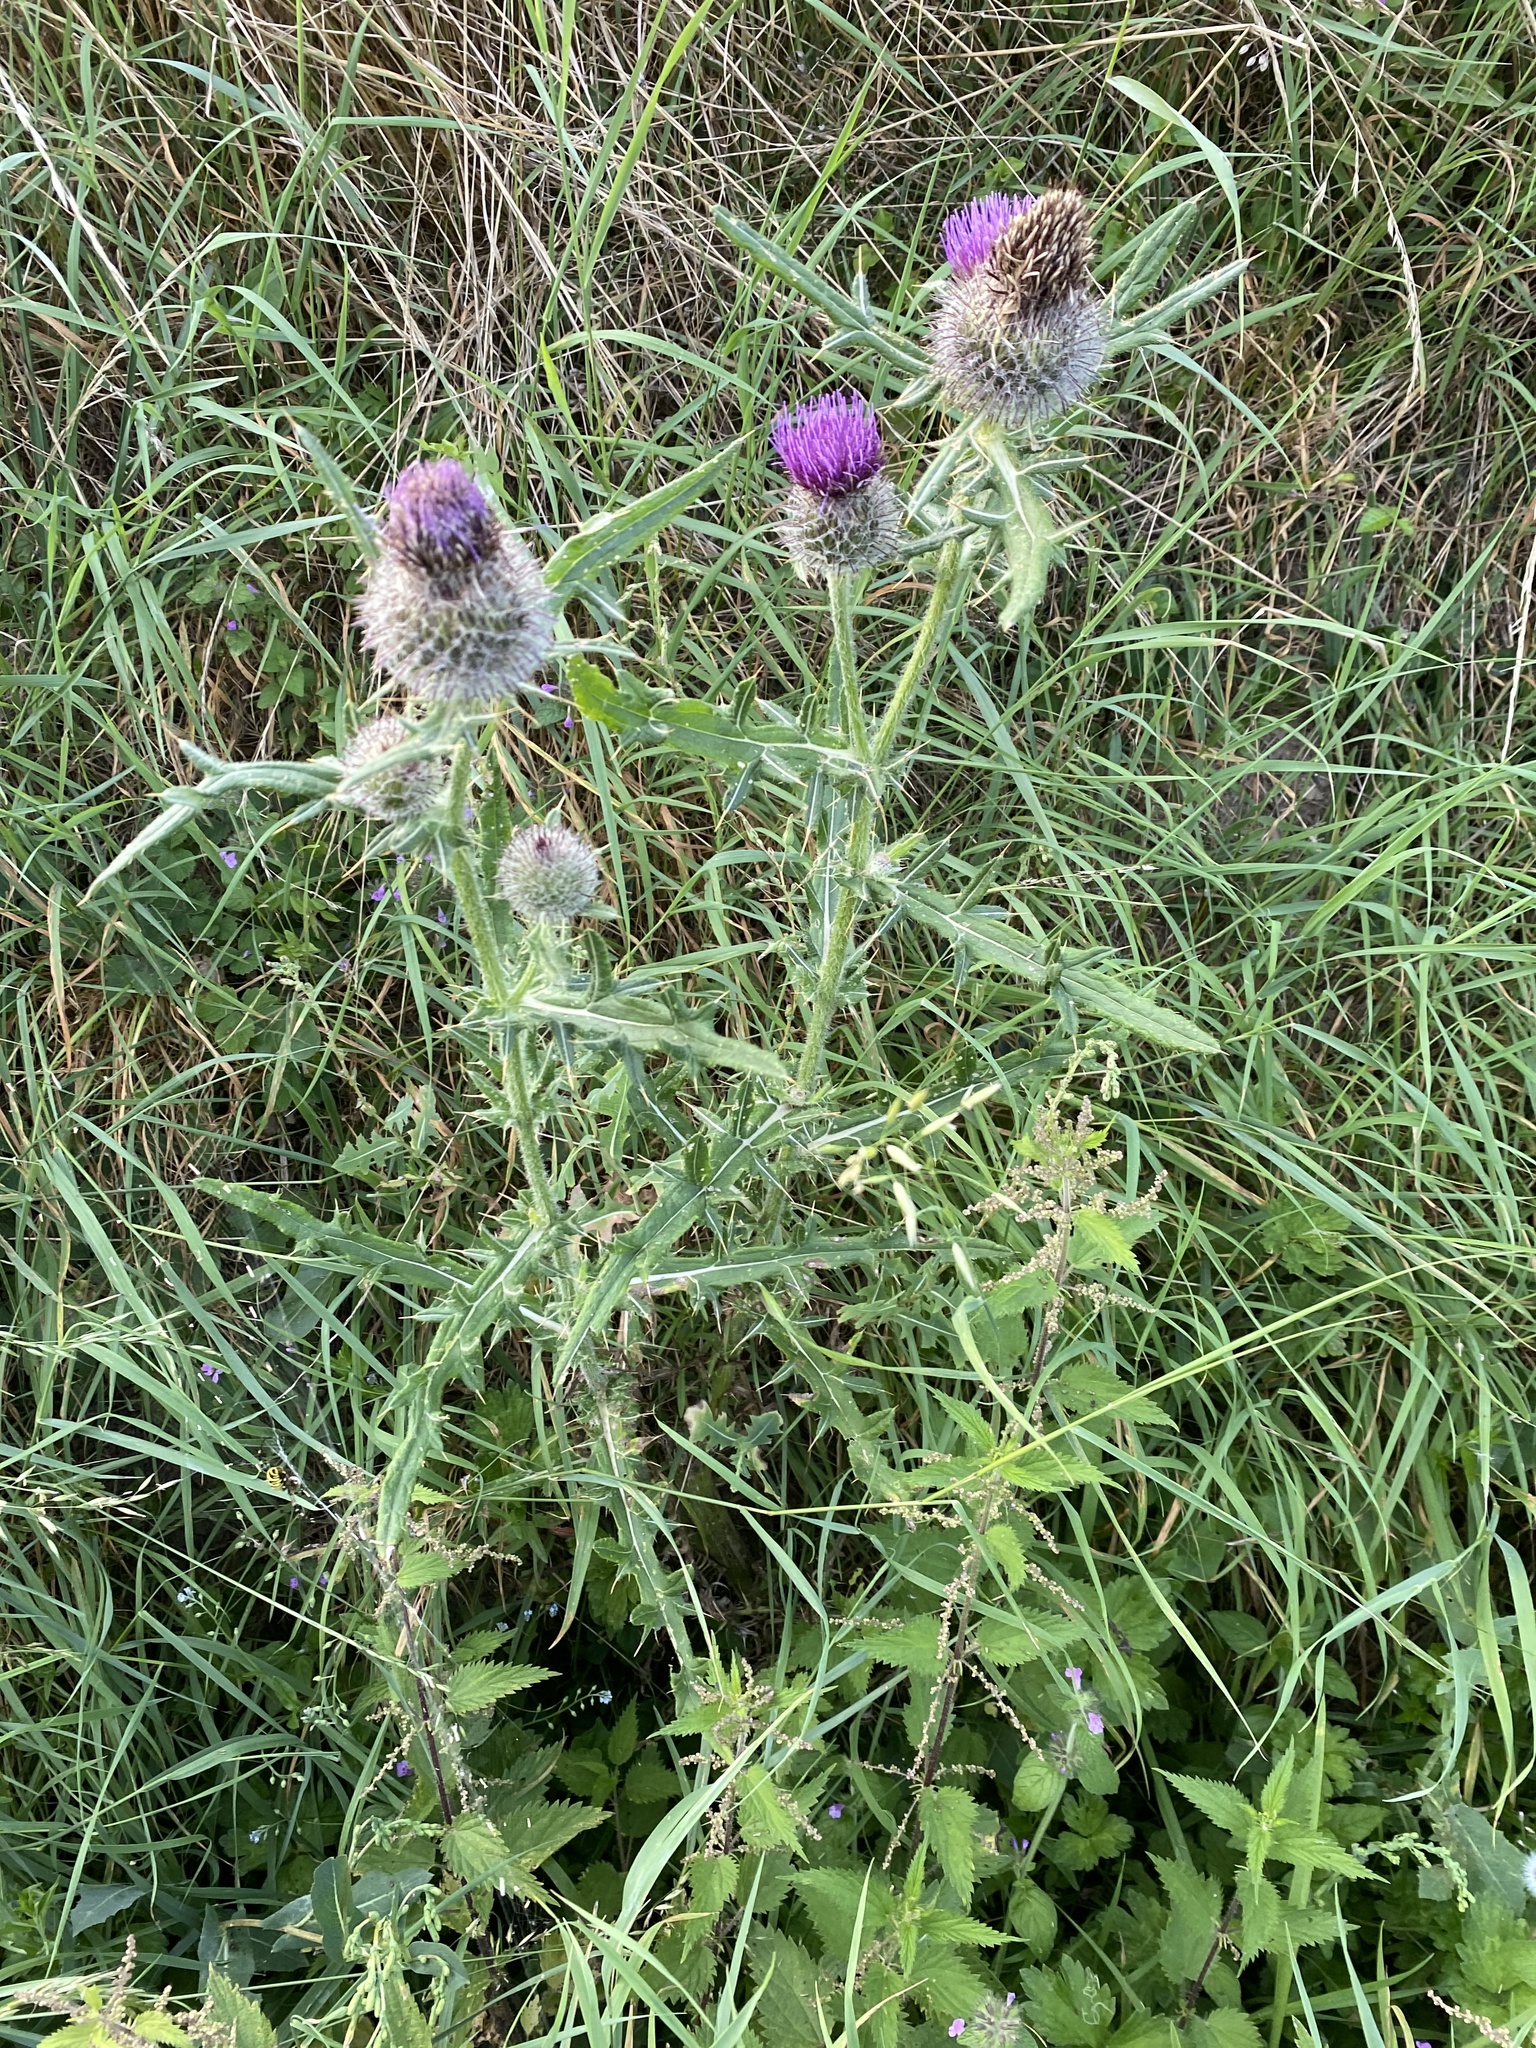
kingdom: Plantae
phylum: Tracheophyta
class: Magnoliopsida
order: Asterales
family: Asteraceae
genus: Lophiolepis
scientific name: Lophiolepis eriophora
